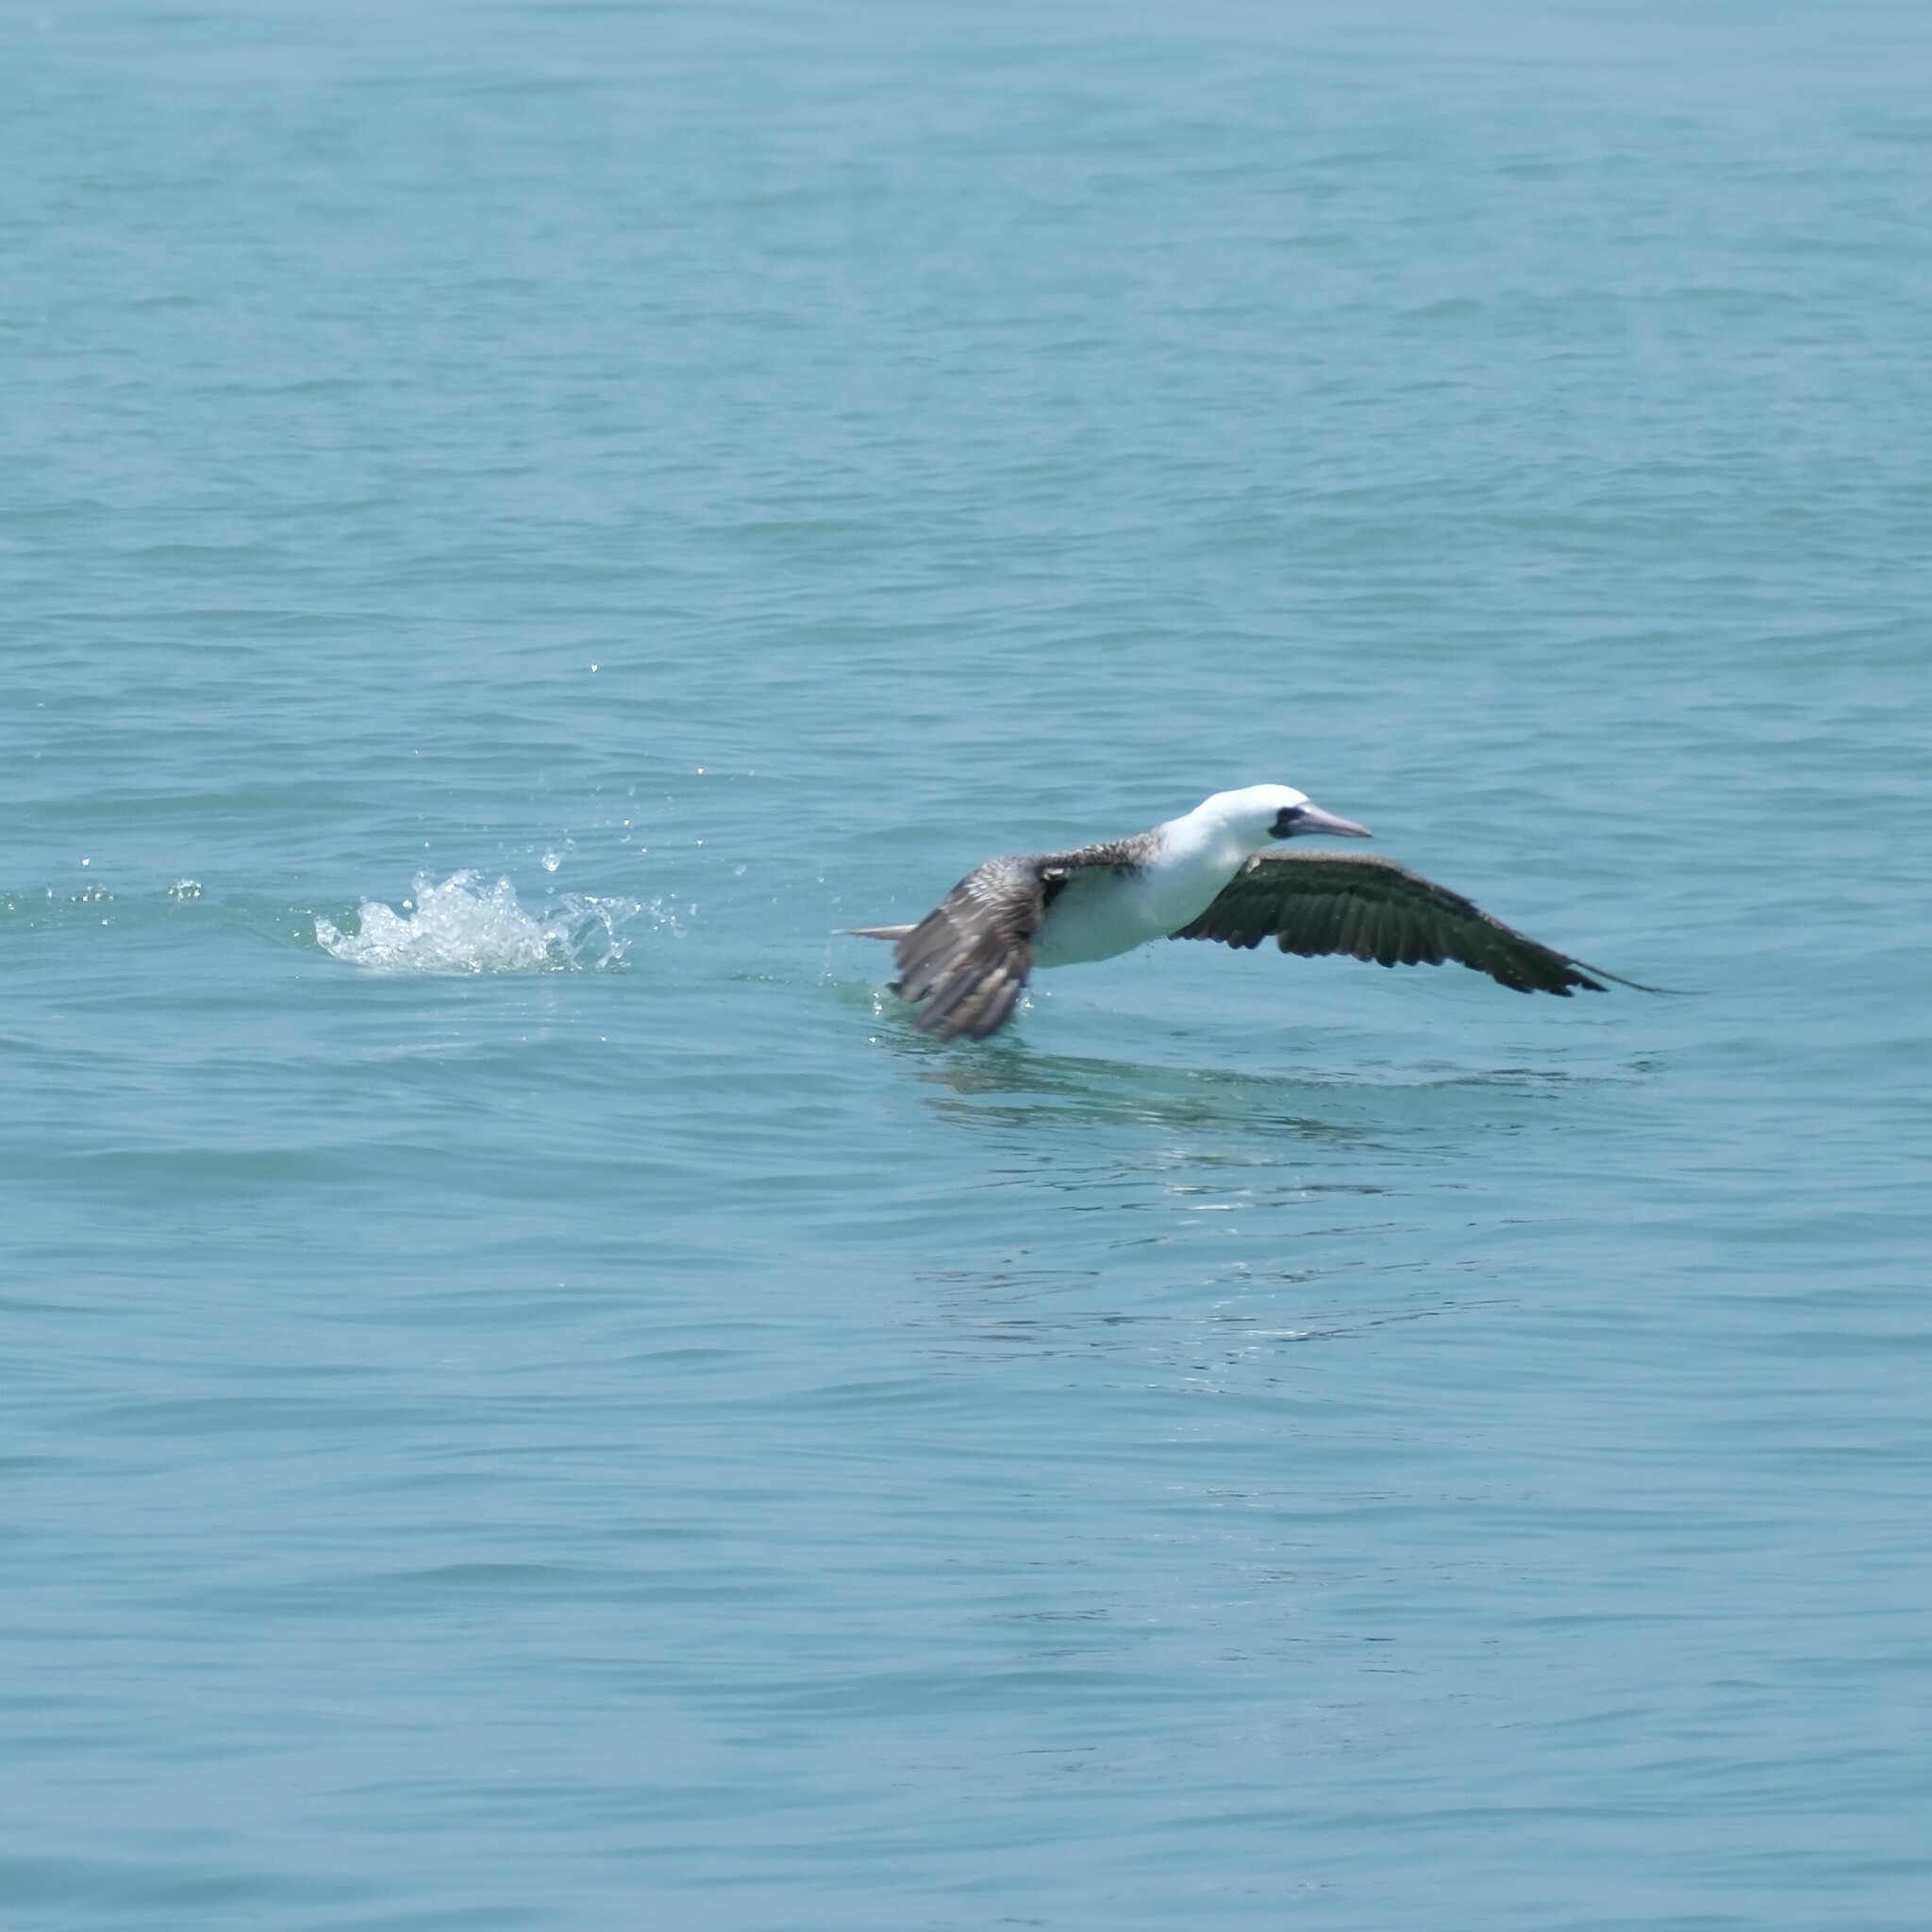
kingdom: Animalia
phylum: Chordata
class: Aves
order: Suliformes
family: Sulidae
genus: Sula
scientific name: Sula variegata
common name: Peruvian booby
